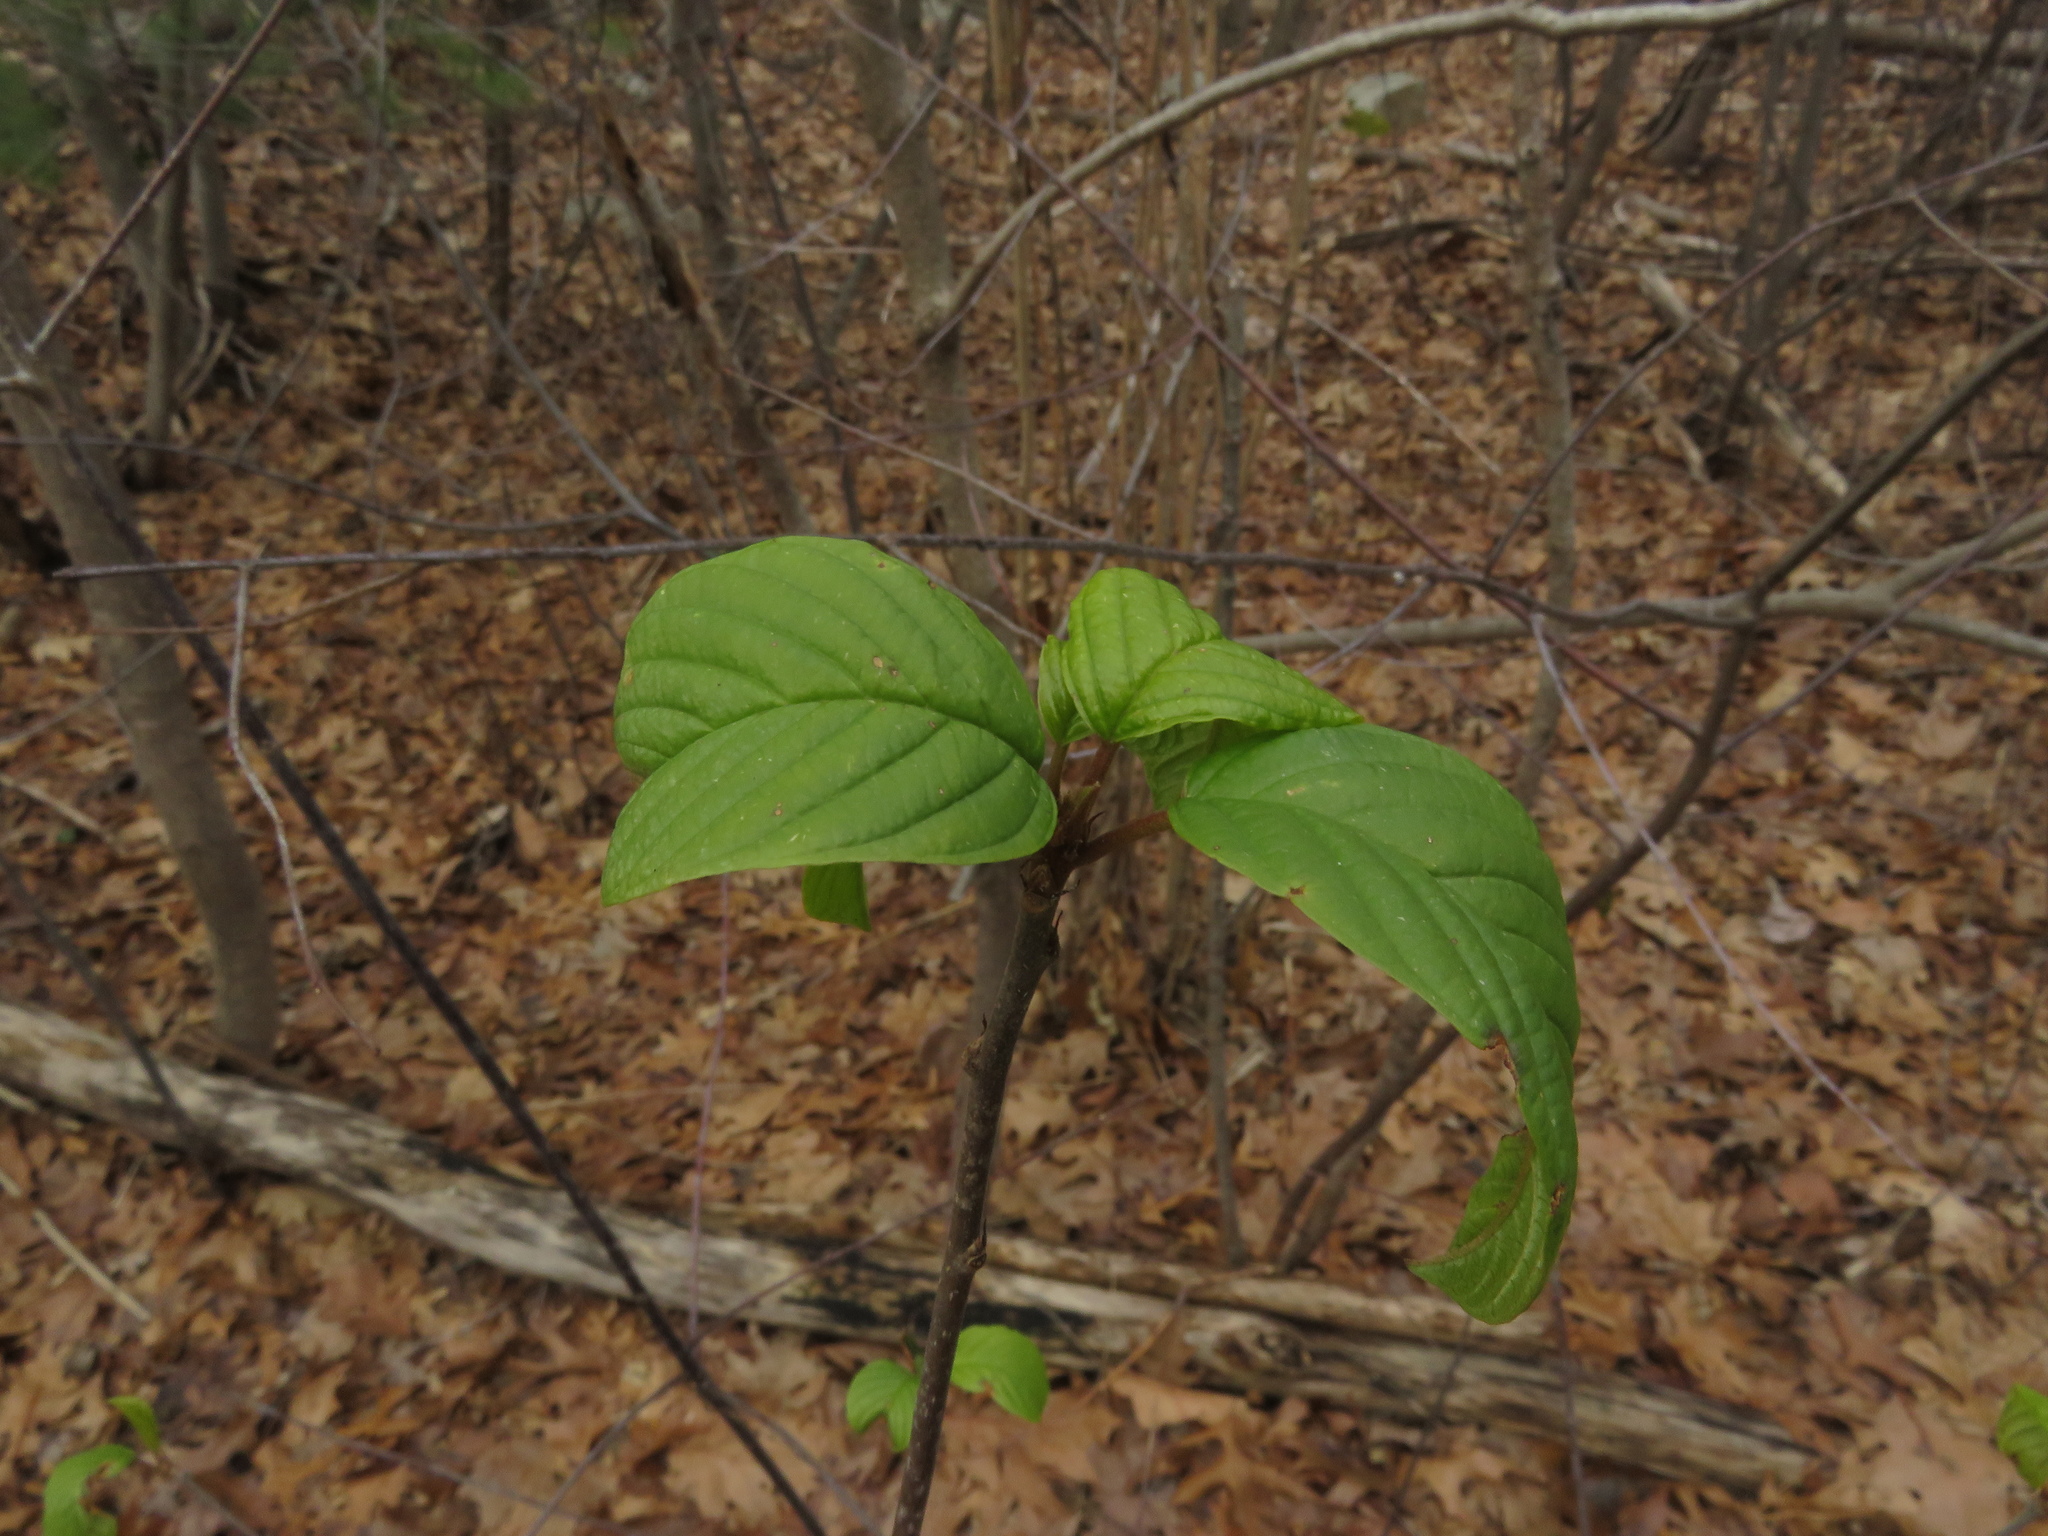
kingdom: Plantae
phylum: Tracheophyta
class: Magnoliopsida
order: Rosales
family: Rhamnaceae
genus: Frangula
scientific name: Frangula alnus
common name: Alder buckthorn
